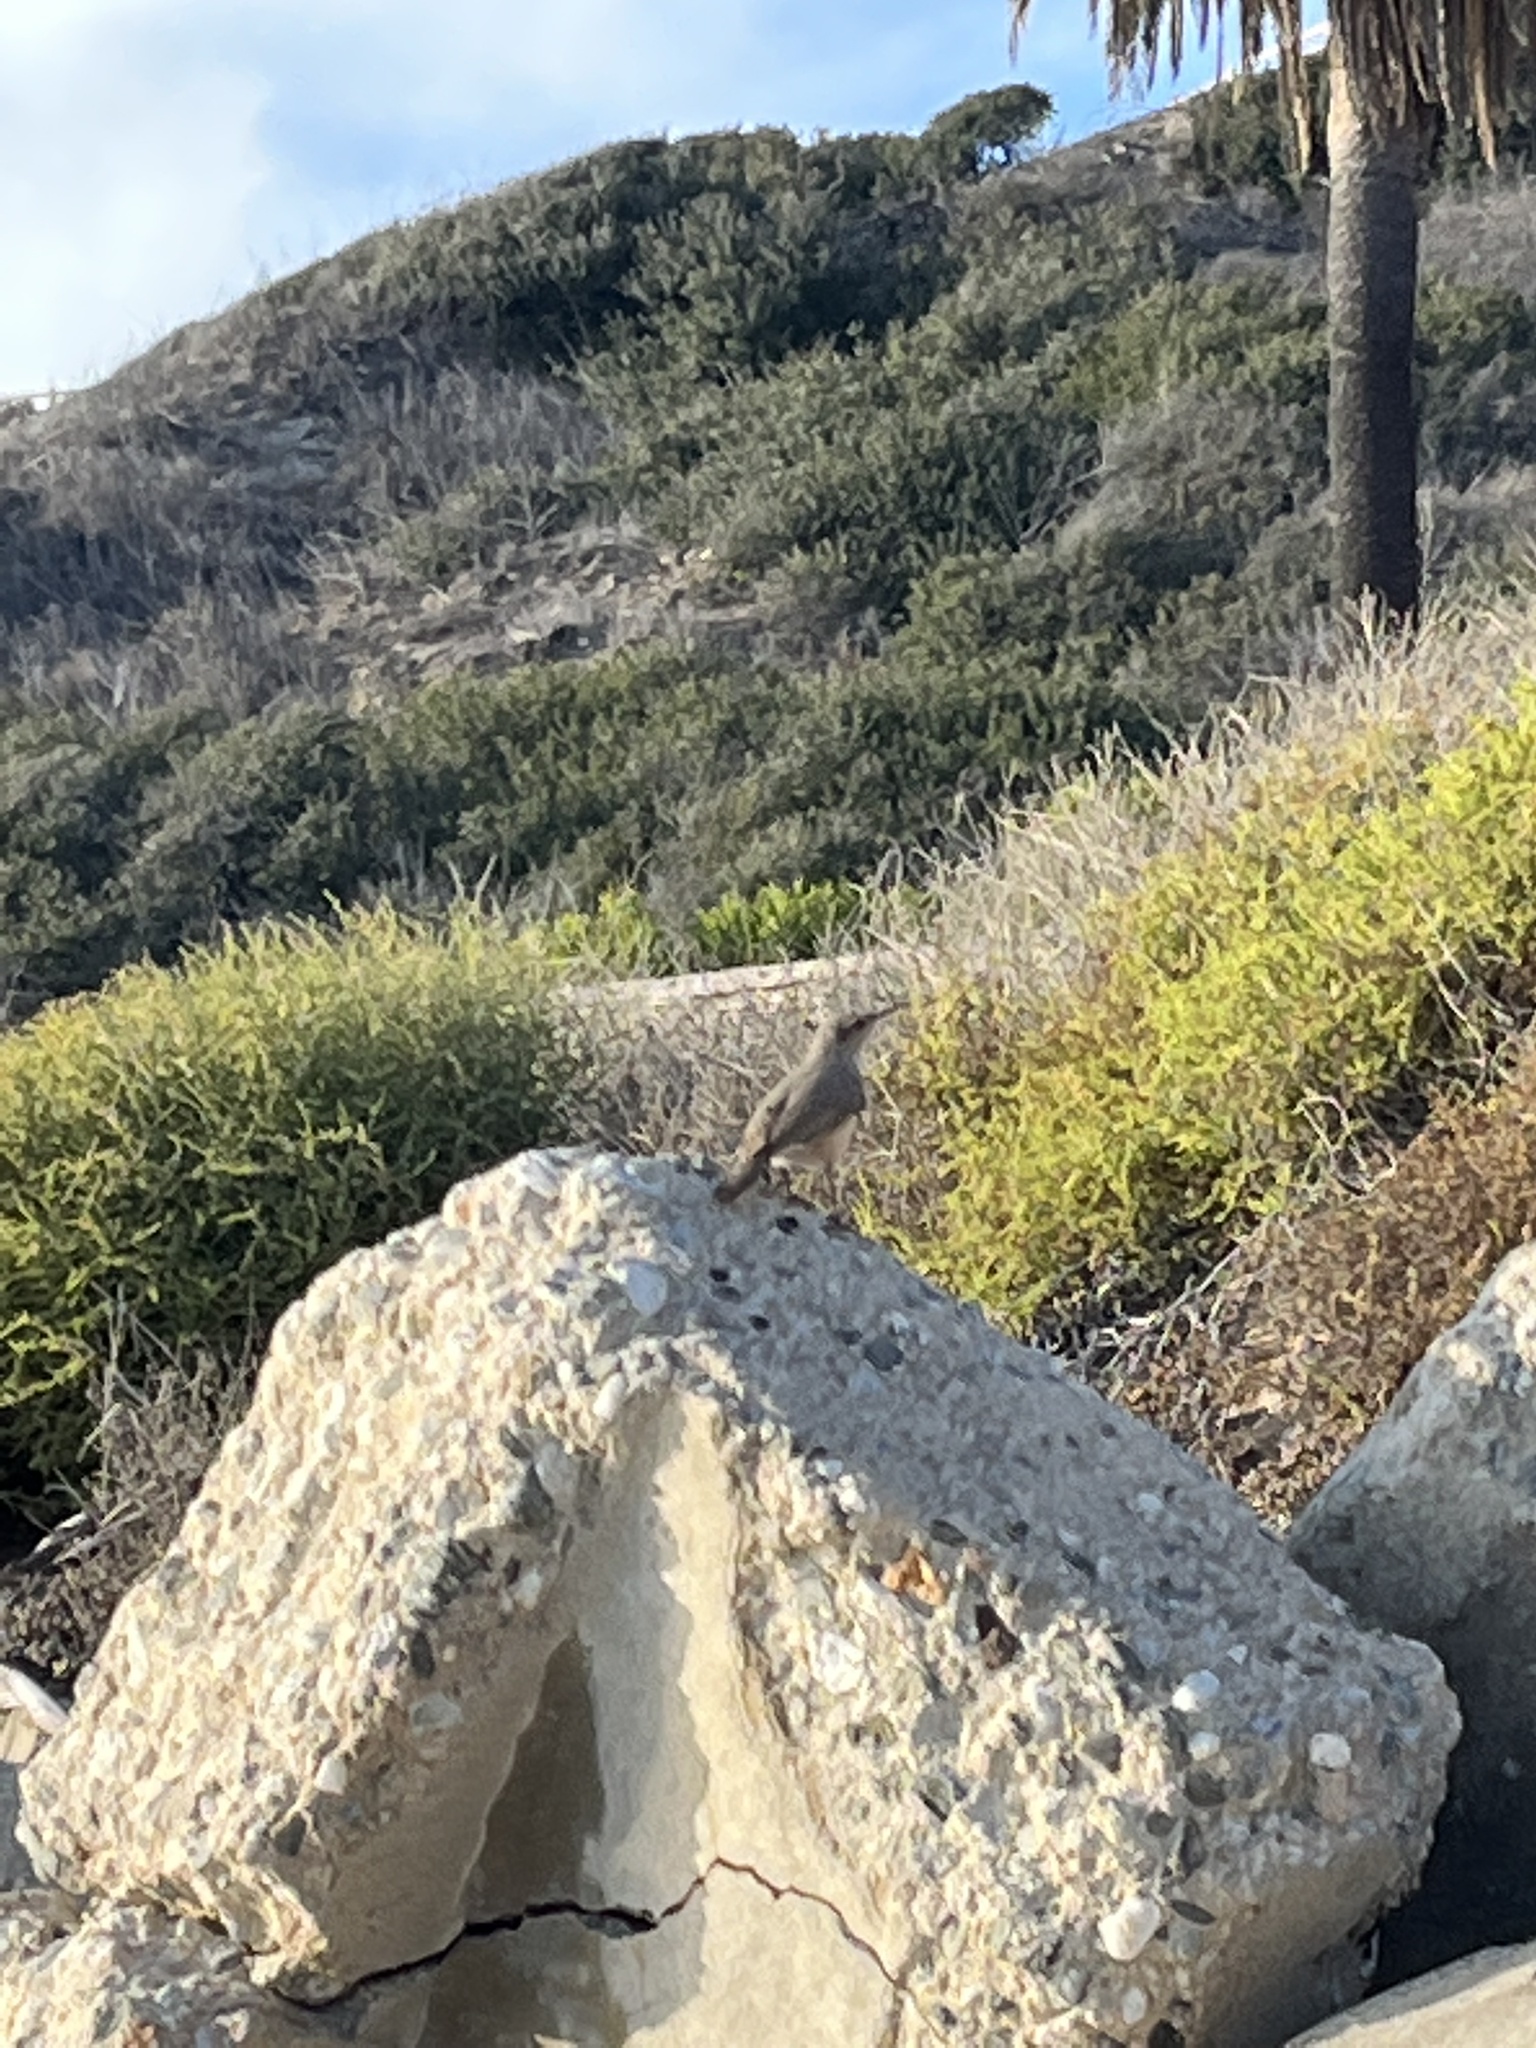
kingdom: Animalia
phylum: Chordata
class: Aves
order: Passeriformes
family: Troglodytidae
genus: Salpinctes
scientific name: Salpinctes obsoletus
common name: Rock wren
